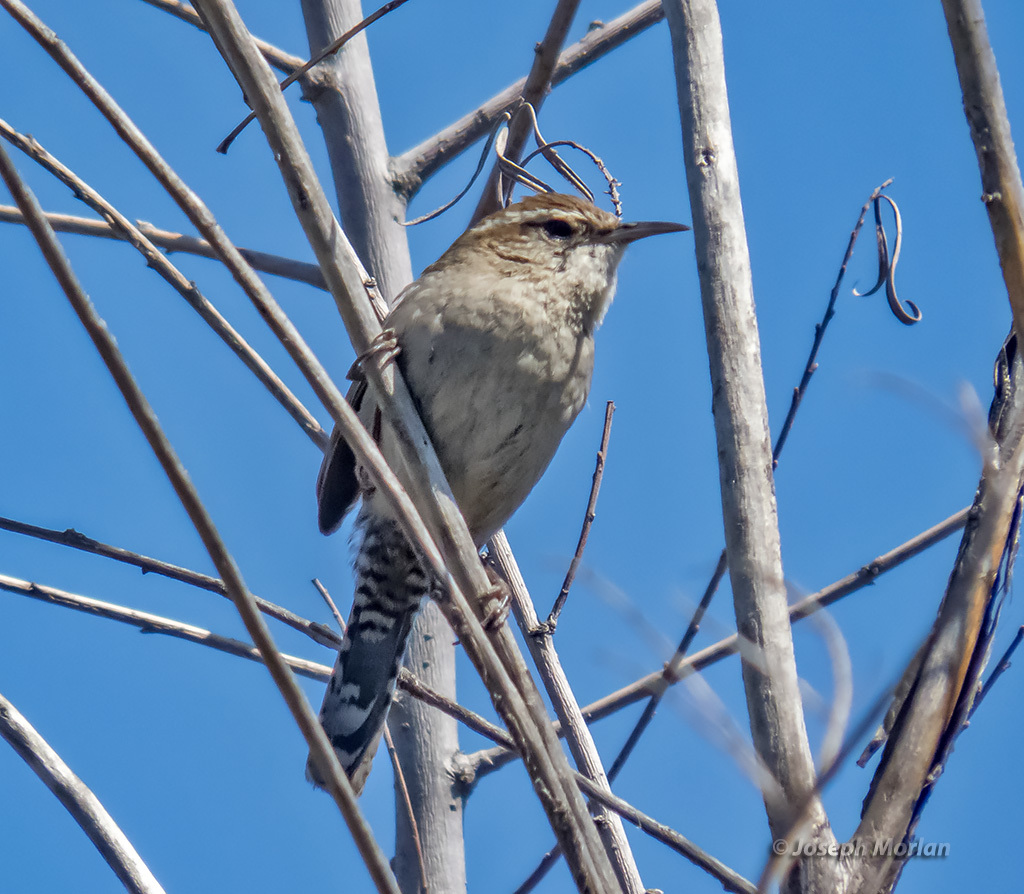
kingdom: Animalia
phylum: Chordata
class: Aves
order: Passeriformes
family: Troglodytidae
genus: Thryomanes
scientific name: Thryomanes bewickii
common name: Bewick's wren
